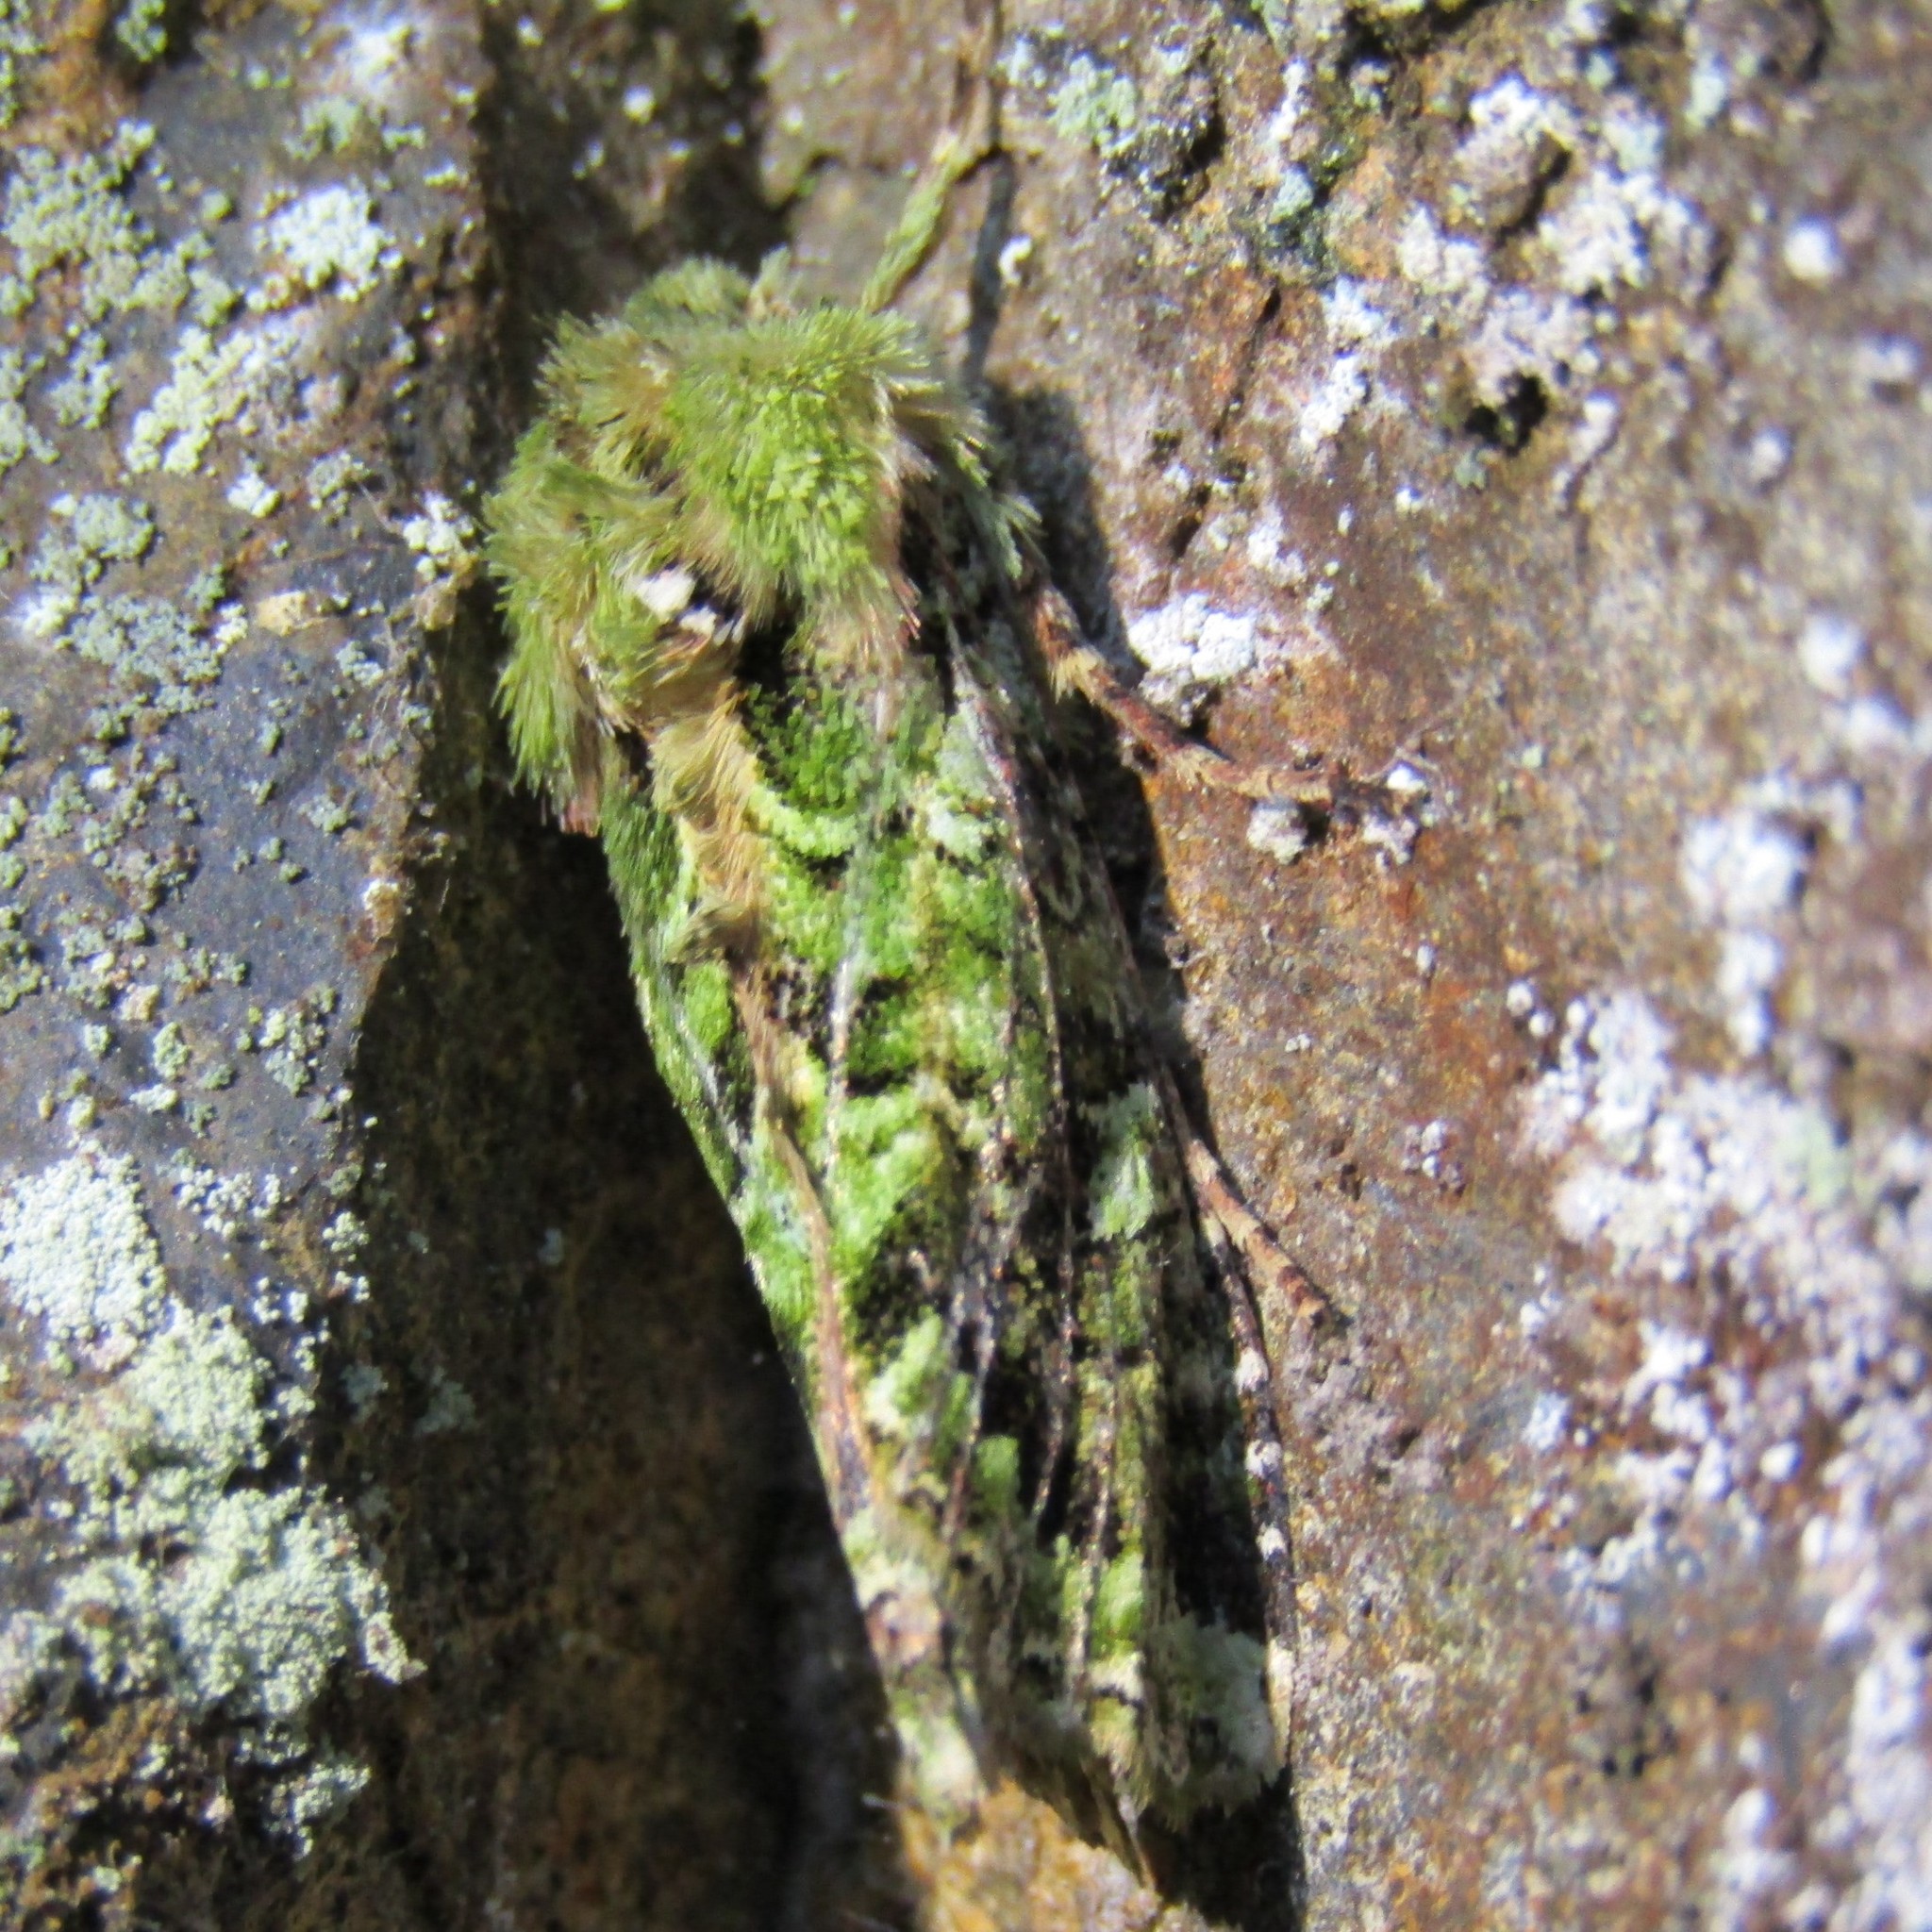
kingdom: Animalia
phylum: Arthropoda
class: Insecta
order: Lepidoptera
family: Noctuidae
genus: Feredayia
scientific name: Feredayia grammosa
